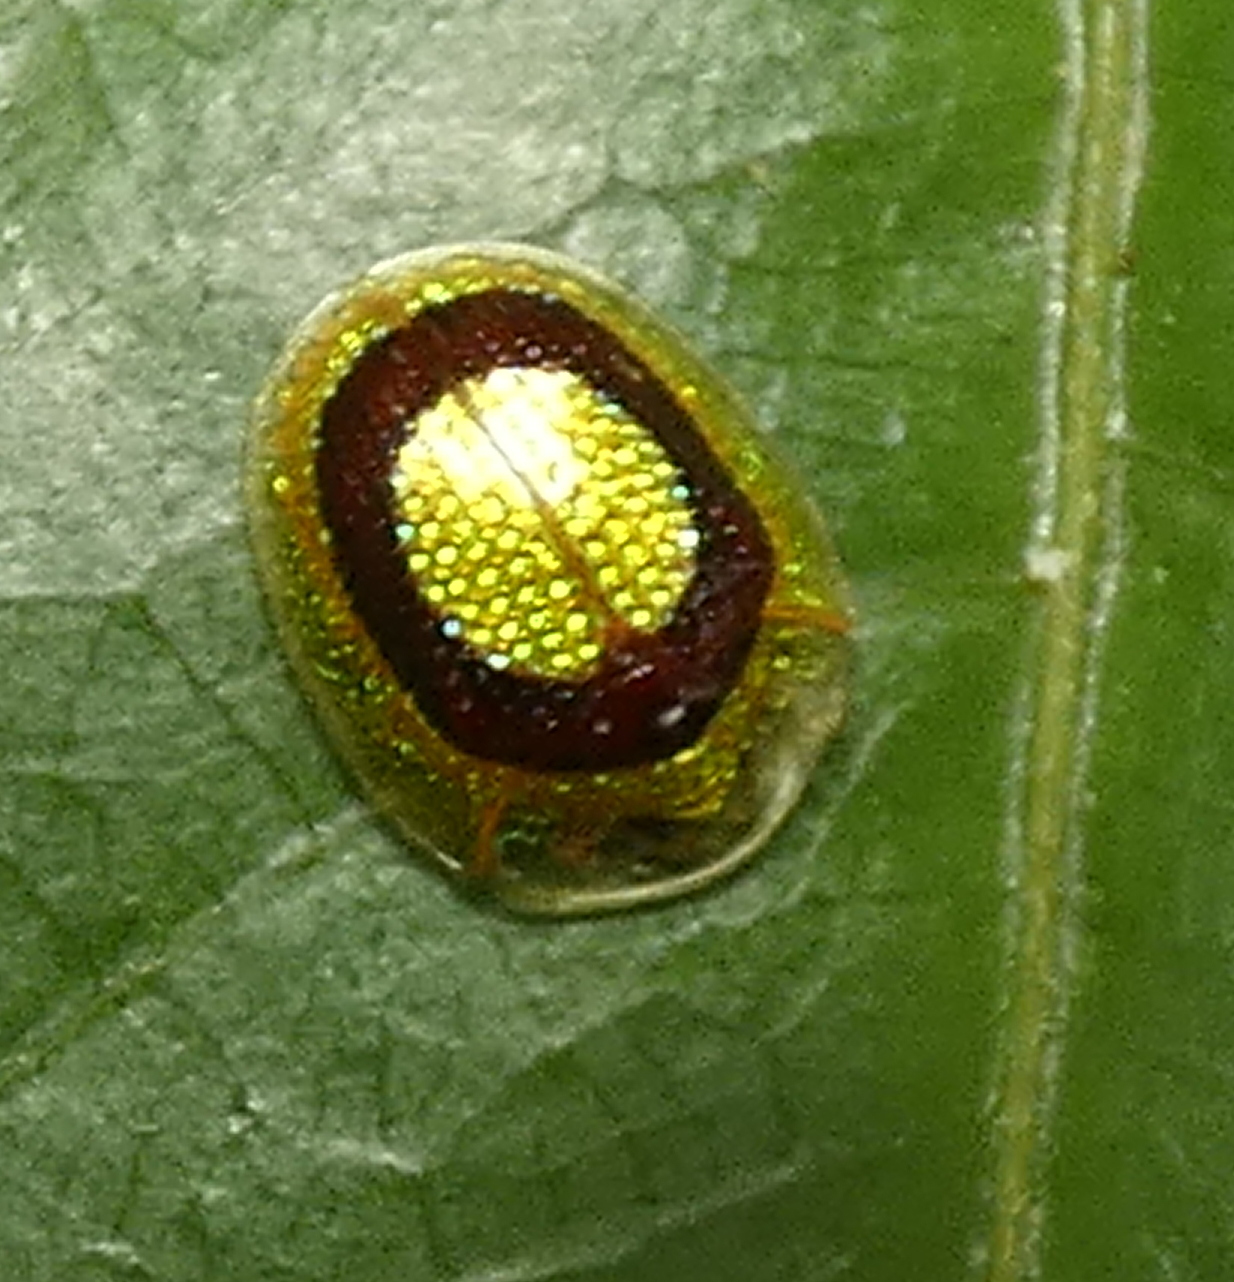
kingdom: Animalia
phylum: Arthropoda
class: Insecta
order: Coleoptera
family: Chrysomelidae
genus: Charidotis
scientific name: Charidotis abrupta
